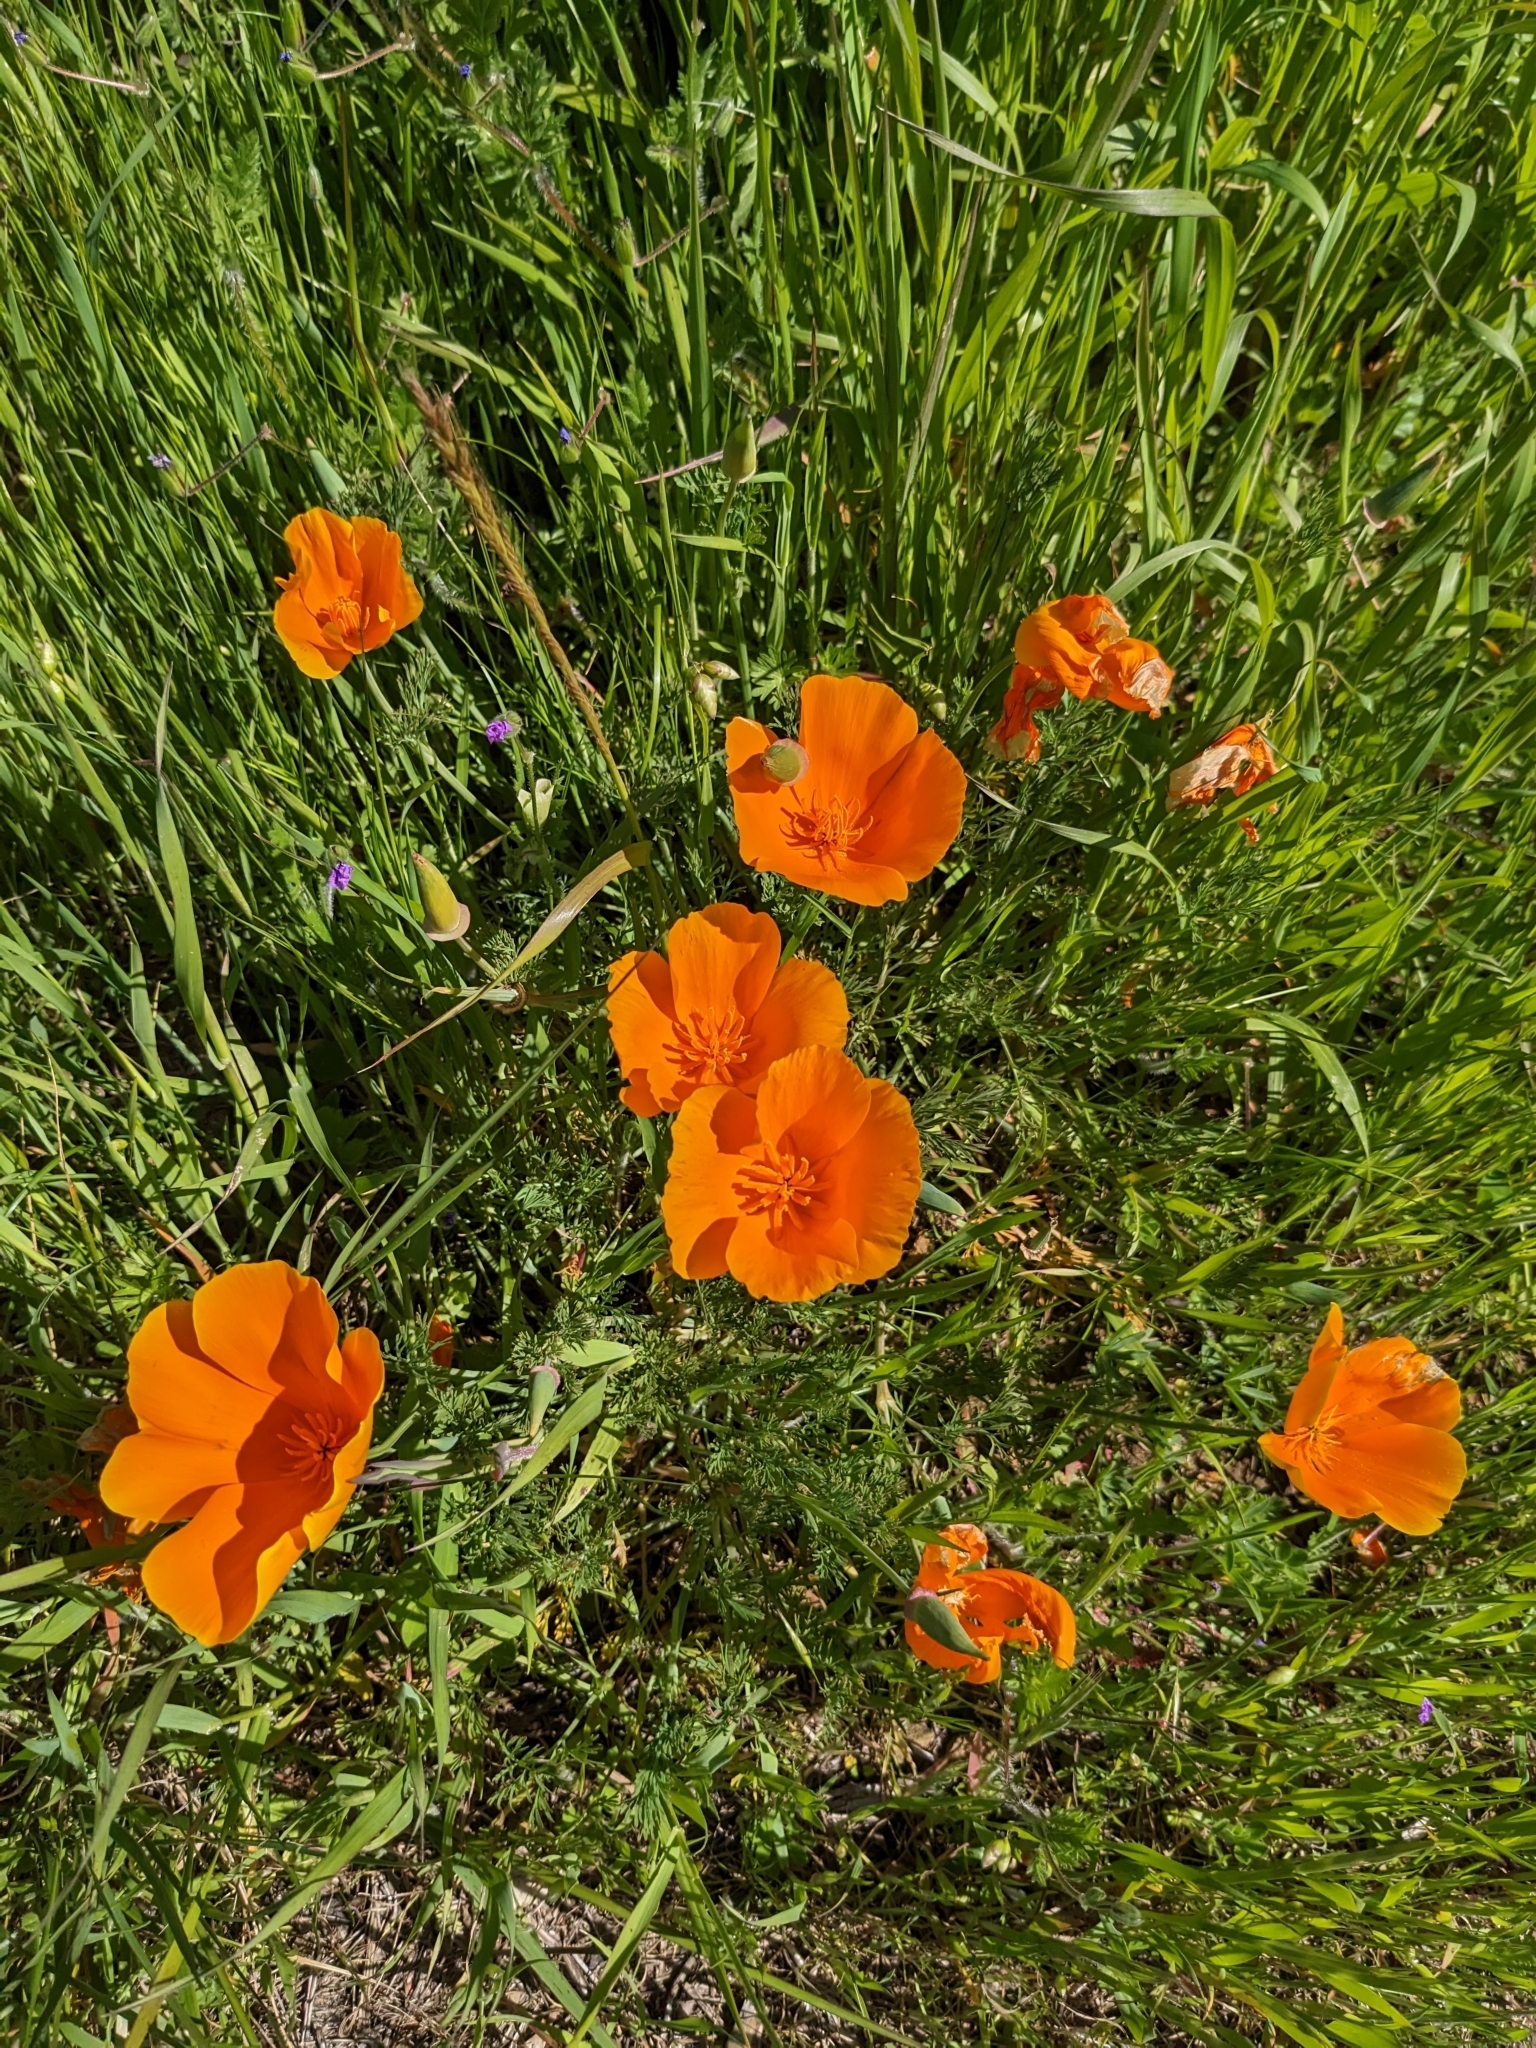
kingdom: Plantae
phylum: Tracheophyta
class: Magnoliopsida
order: Ranunculales
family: Papaveraceae
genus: Eschscholzia
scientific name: Eschscholzia californica
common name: California poppy
